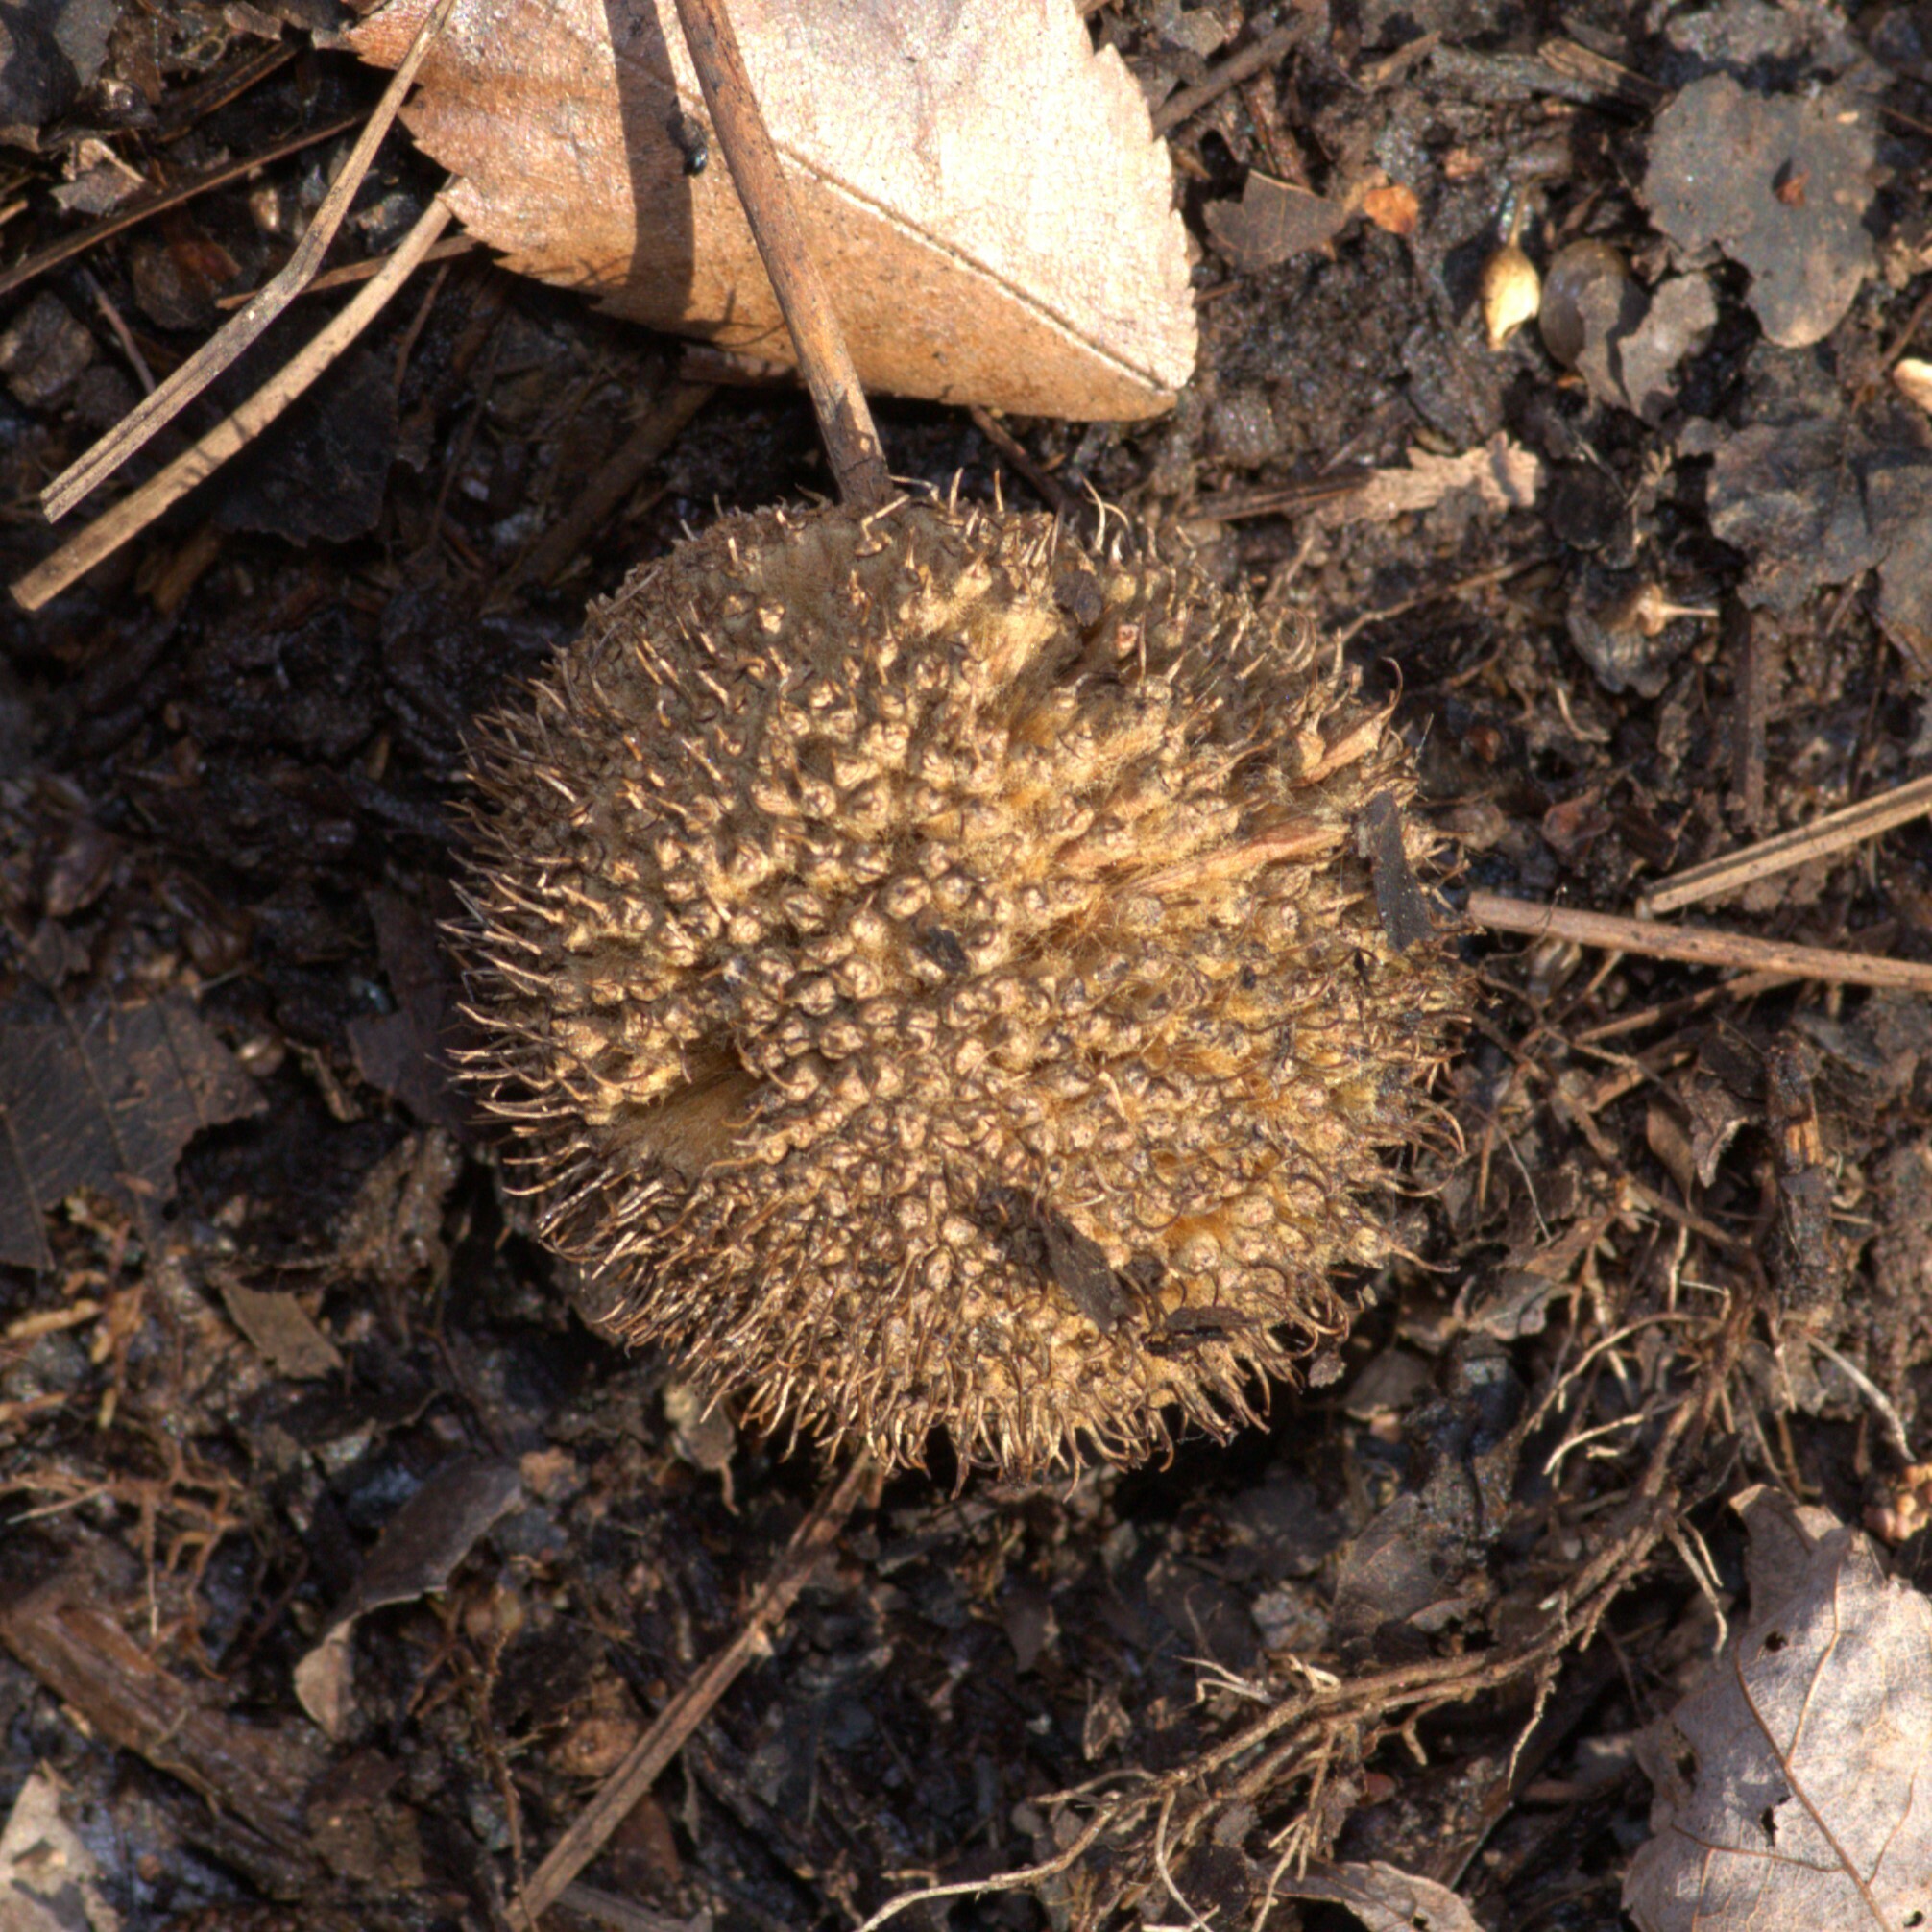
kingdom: Plantae
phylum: Tracheophyta
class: Magnoliopsida
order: Proteales
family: Platanaceae
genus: Platanus
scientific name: Platanus occidentalis
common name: American sycamore
